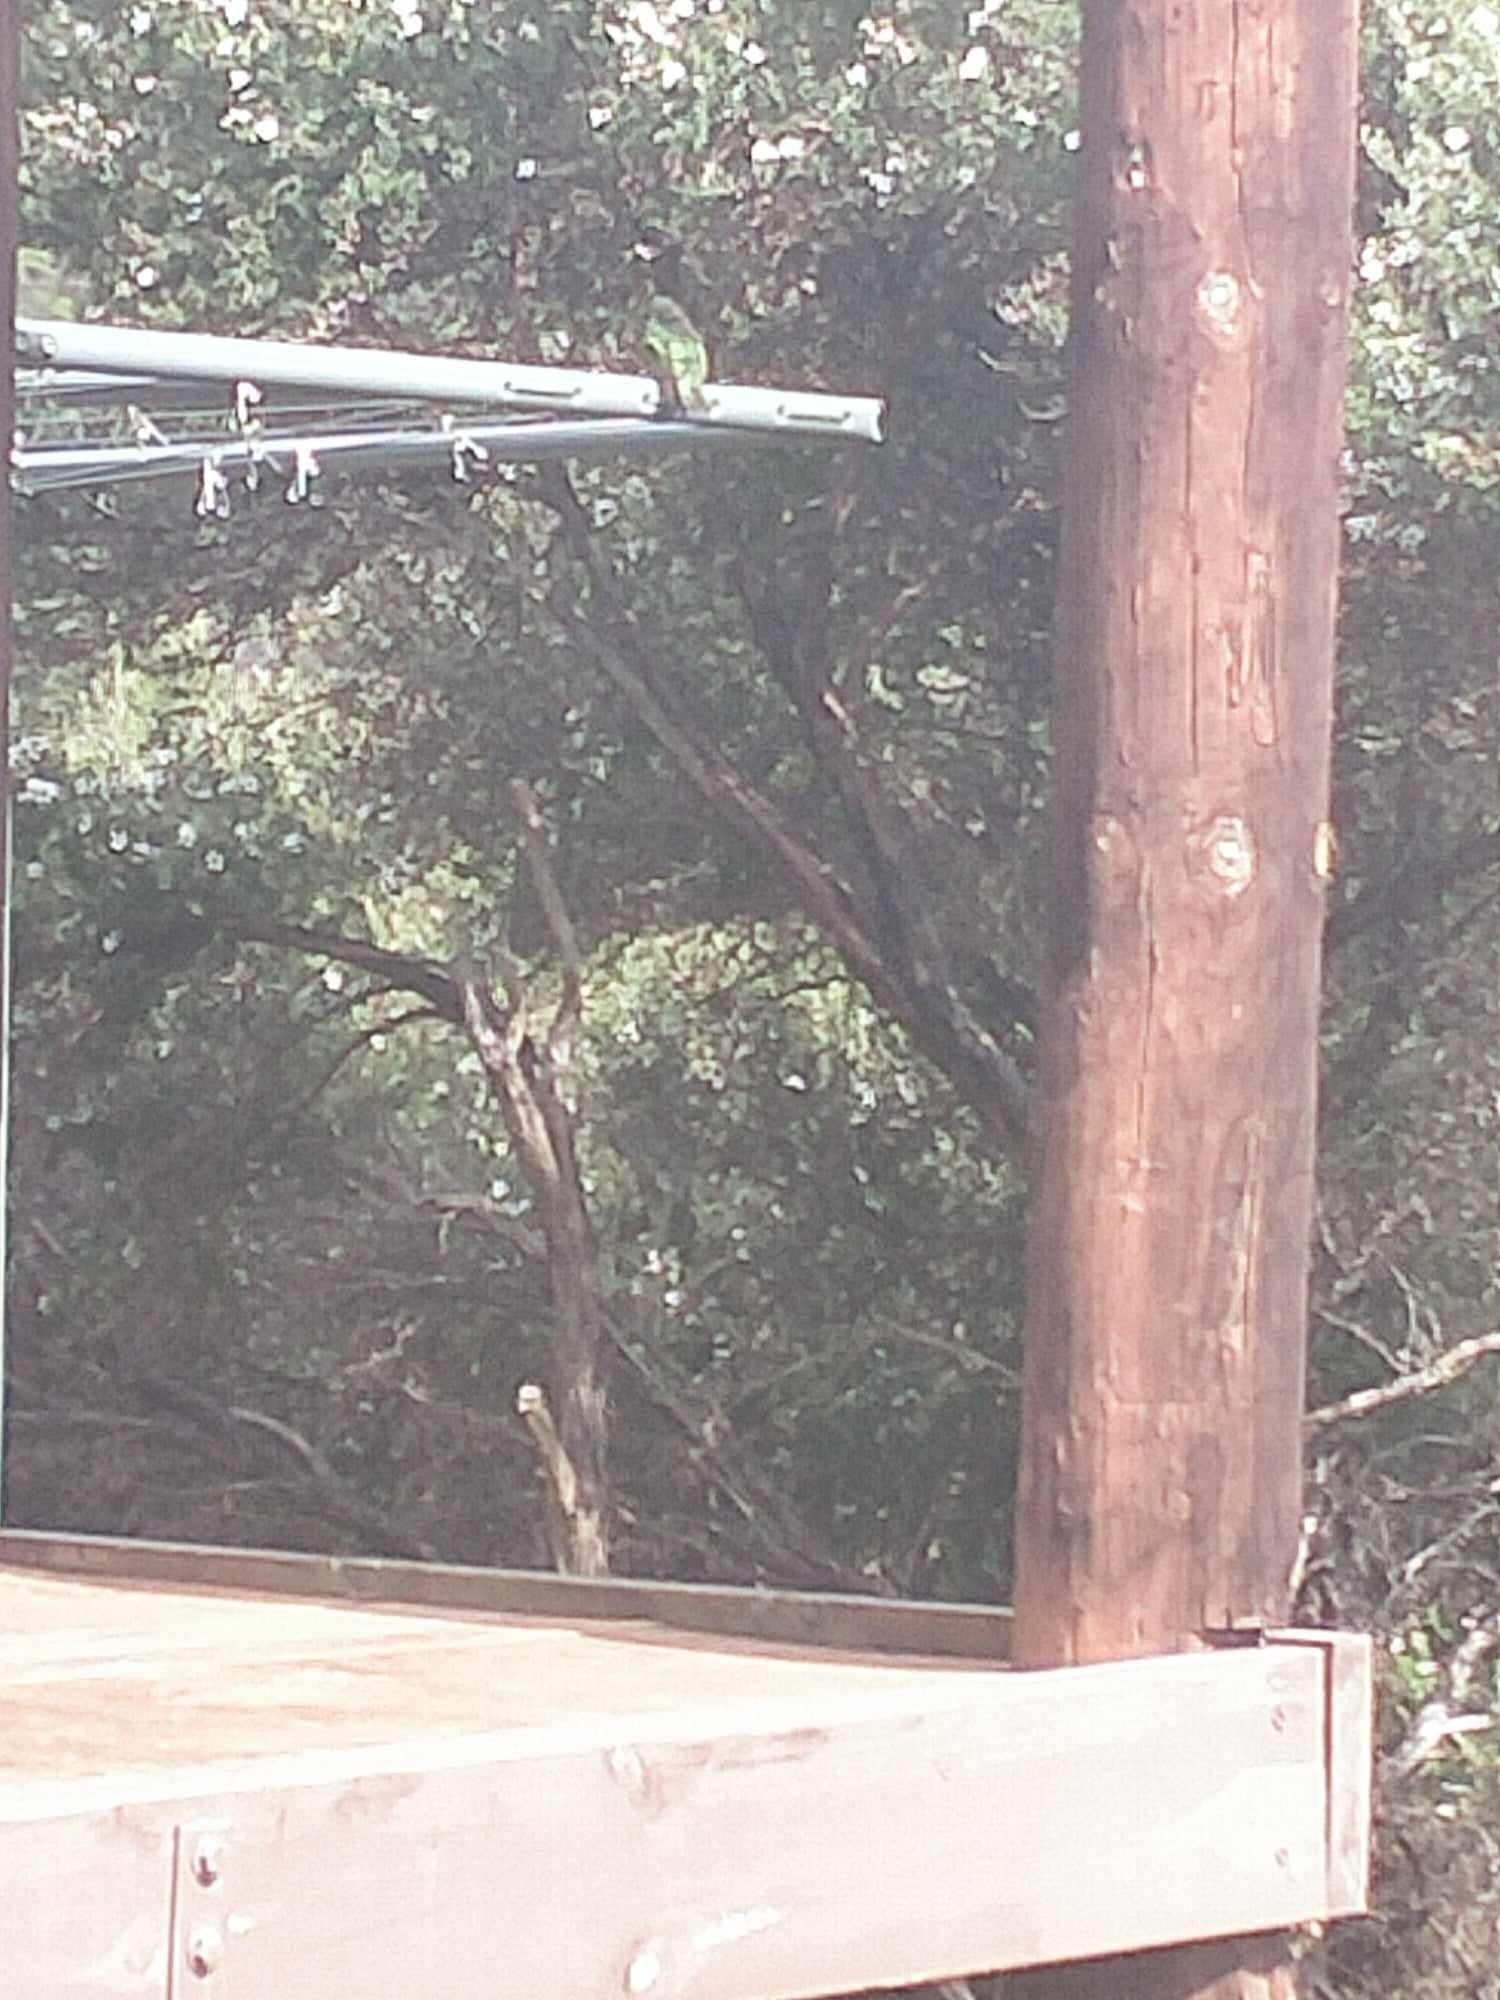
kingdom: Animalia
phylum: Chordata
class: Aves
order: Cuculiformes
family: Cuculidae
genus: Chrysococcyx
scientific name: Chrysococcyx lucidus
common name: Shining bronze cuckoo
